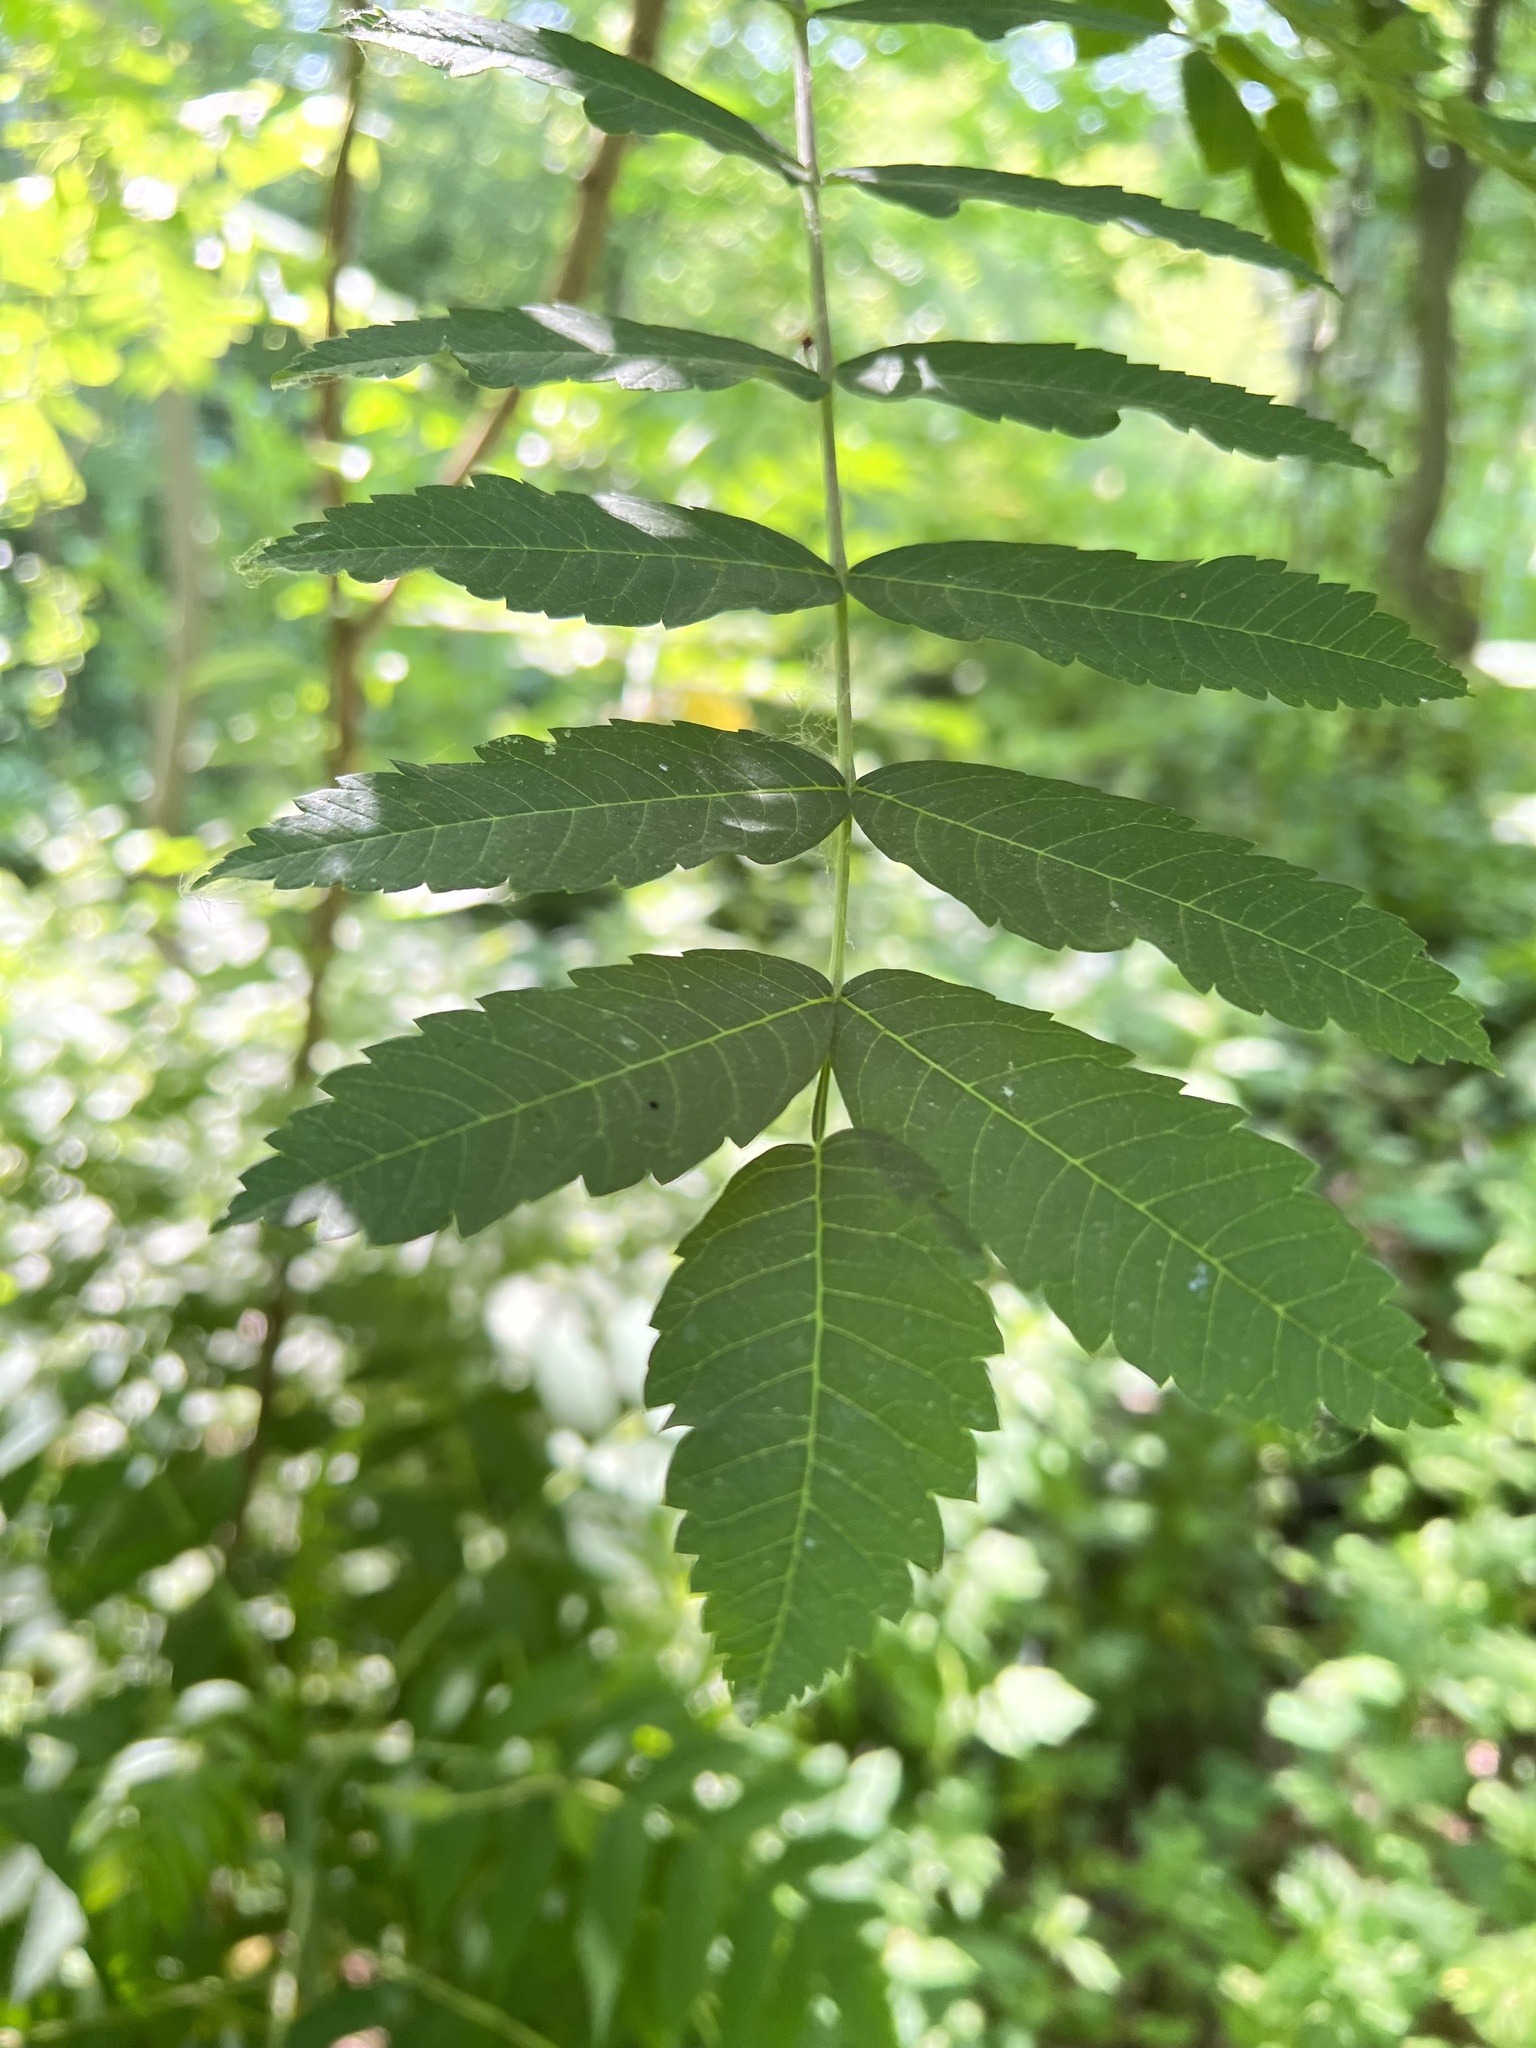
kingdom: Plantae
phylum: Tracheophyta
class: Magnoliopsida
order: Sapindales
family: Anacardiaceae
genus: Rhus
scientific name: Rhus typhina
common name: Staghorn sumac
